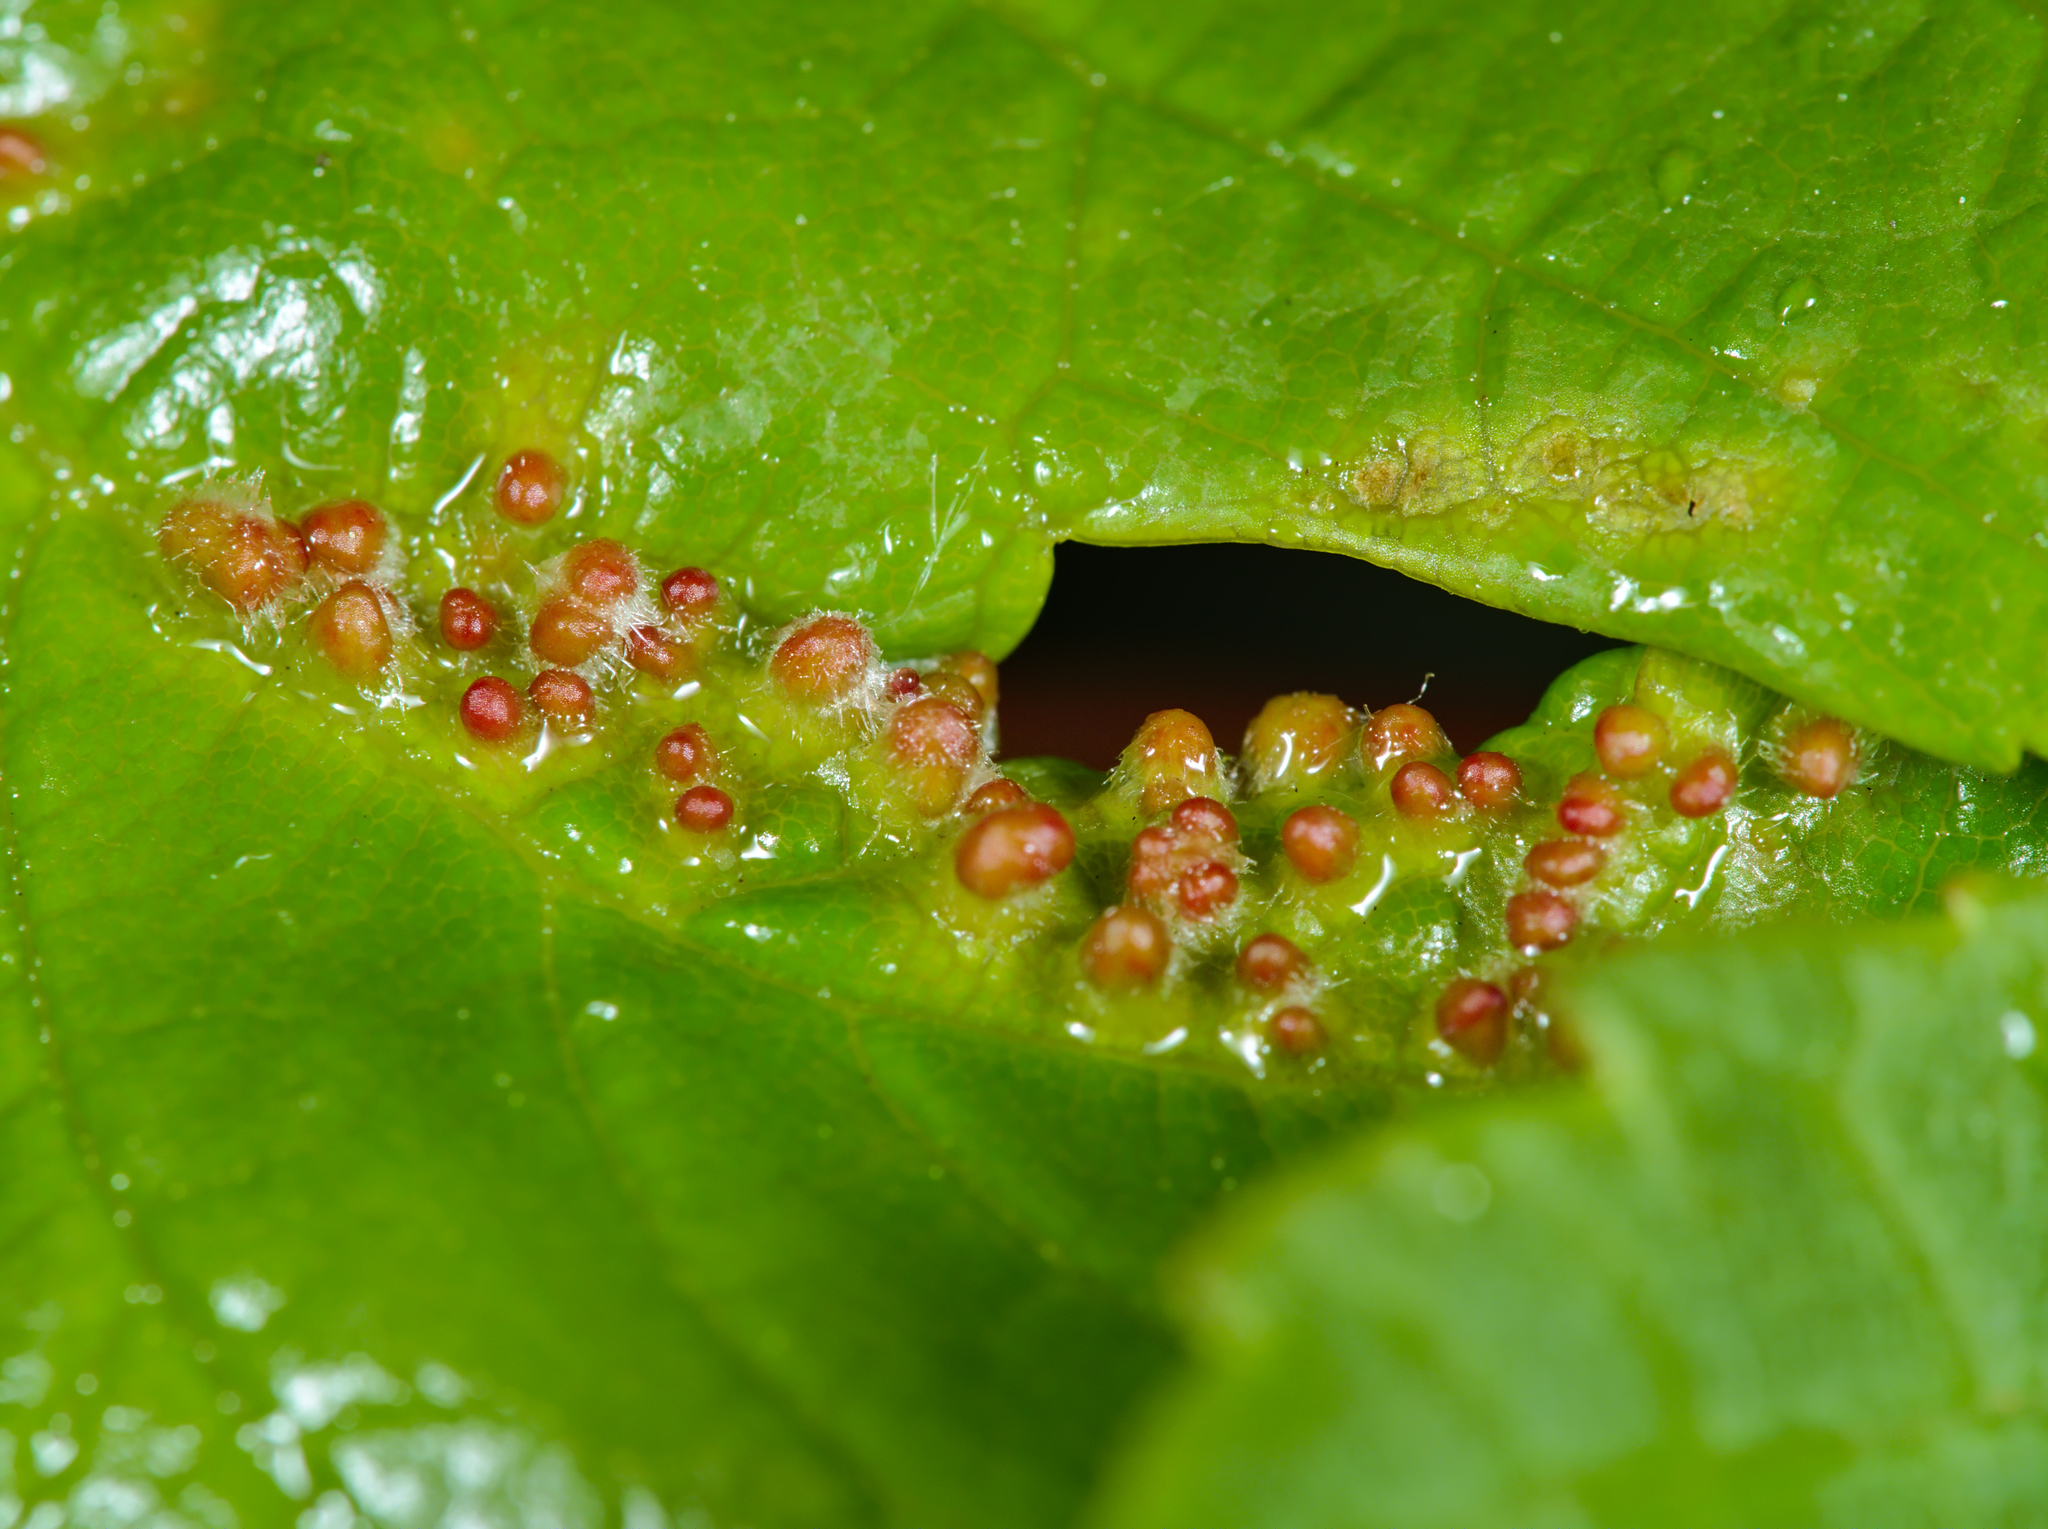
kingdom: Animalia
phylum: Arthropoda
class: Arachnida
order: Trombidiformes
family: Eriophyidae
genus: Aceria
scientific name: Aceria cephaloneus
